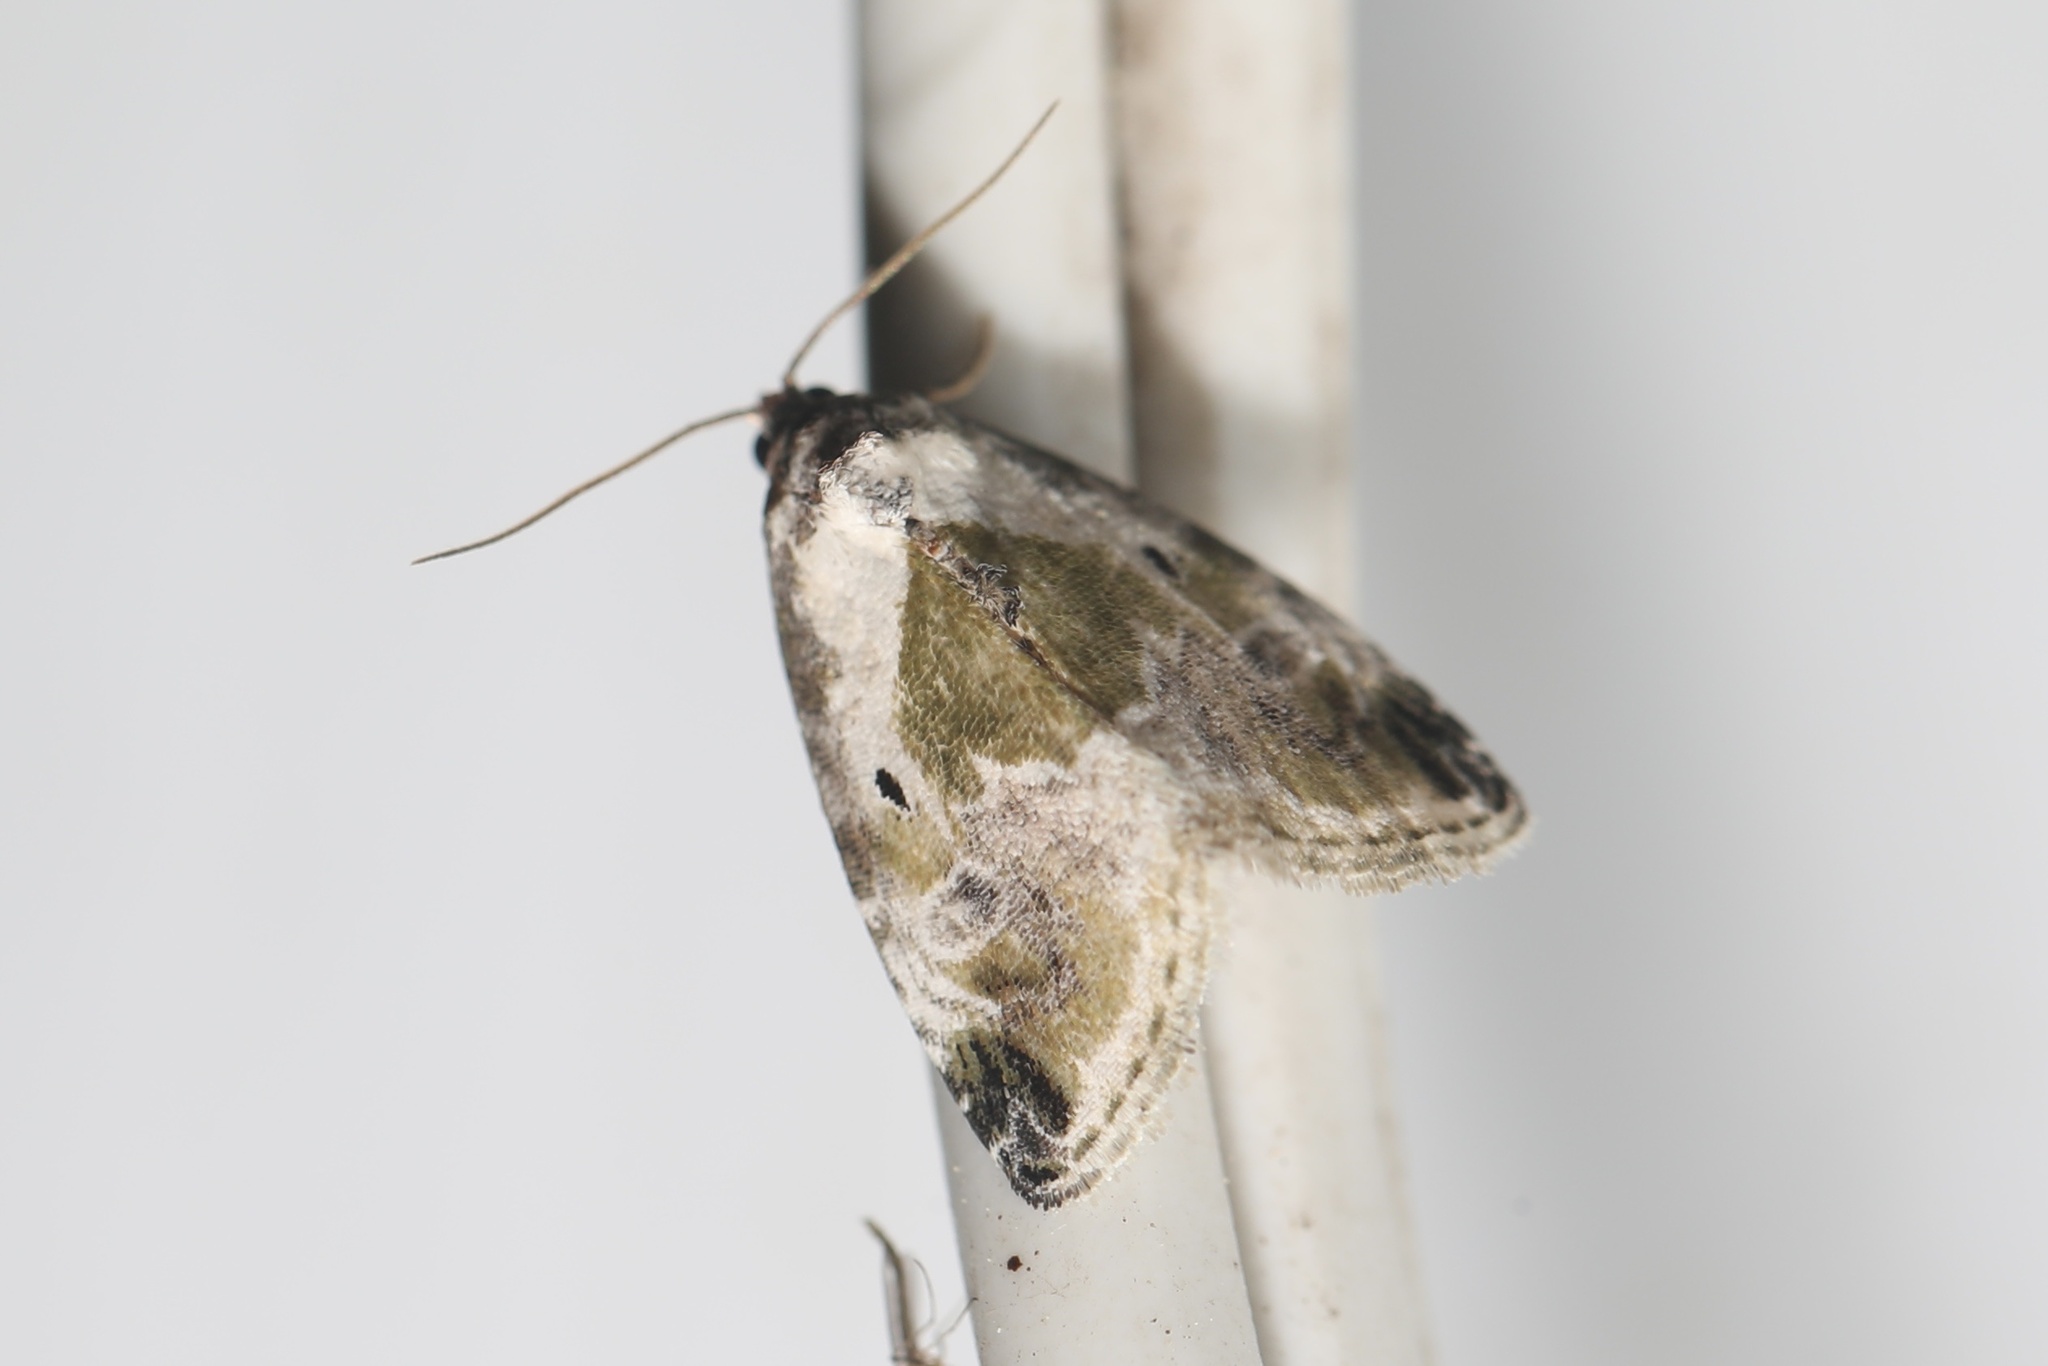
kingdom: Animalia
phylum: Arthropoda
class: Insecta
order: Lepidoptera
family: Noctuidae
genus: Maliattha
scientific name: Maliattha synochitis
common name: Black-dotted glyph
